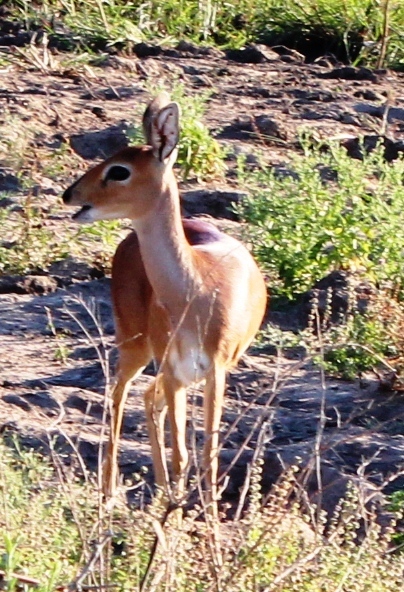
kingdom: Animalia
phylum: Chordata
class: Mammalia
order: Artiodactyla
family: Bovidae
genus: Raphicerus
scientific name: Raphicerus campestris
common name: Steenbok
